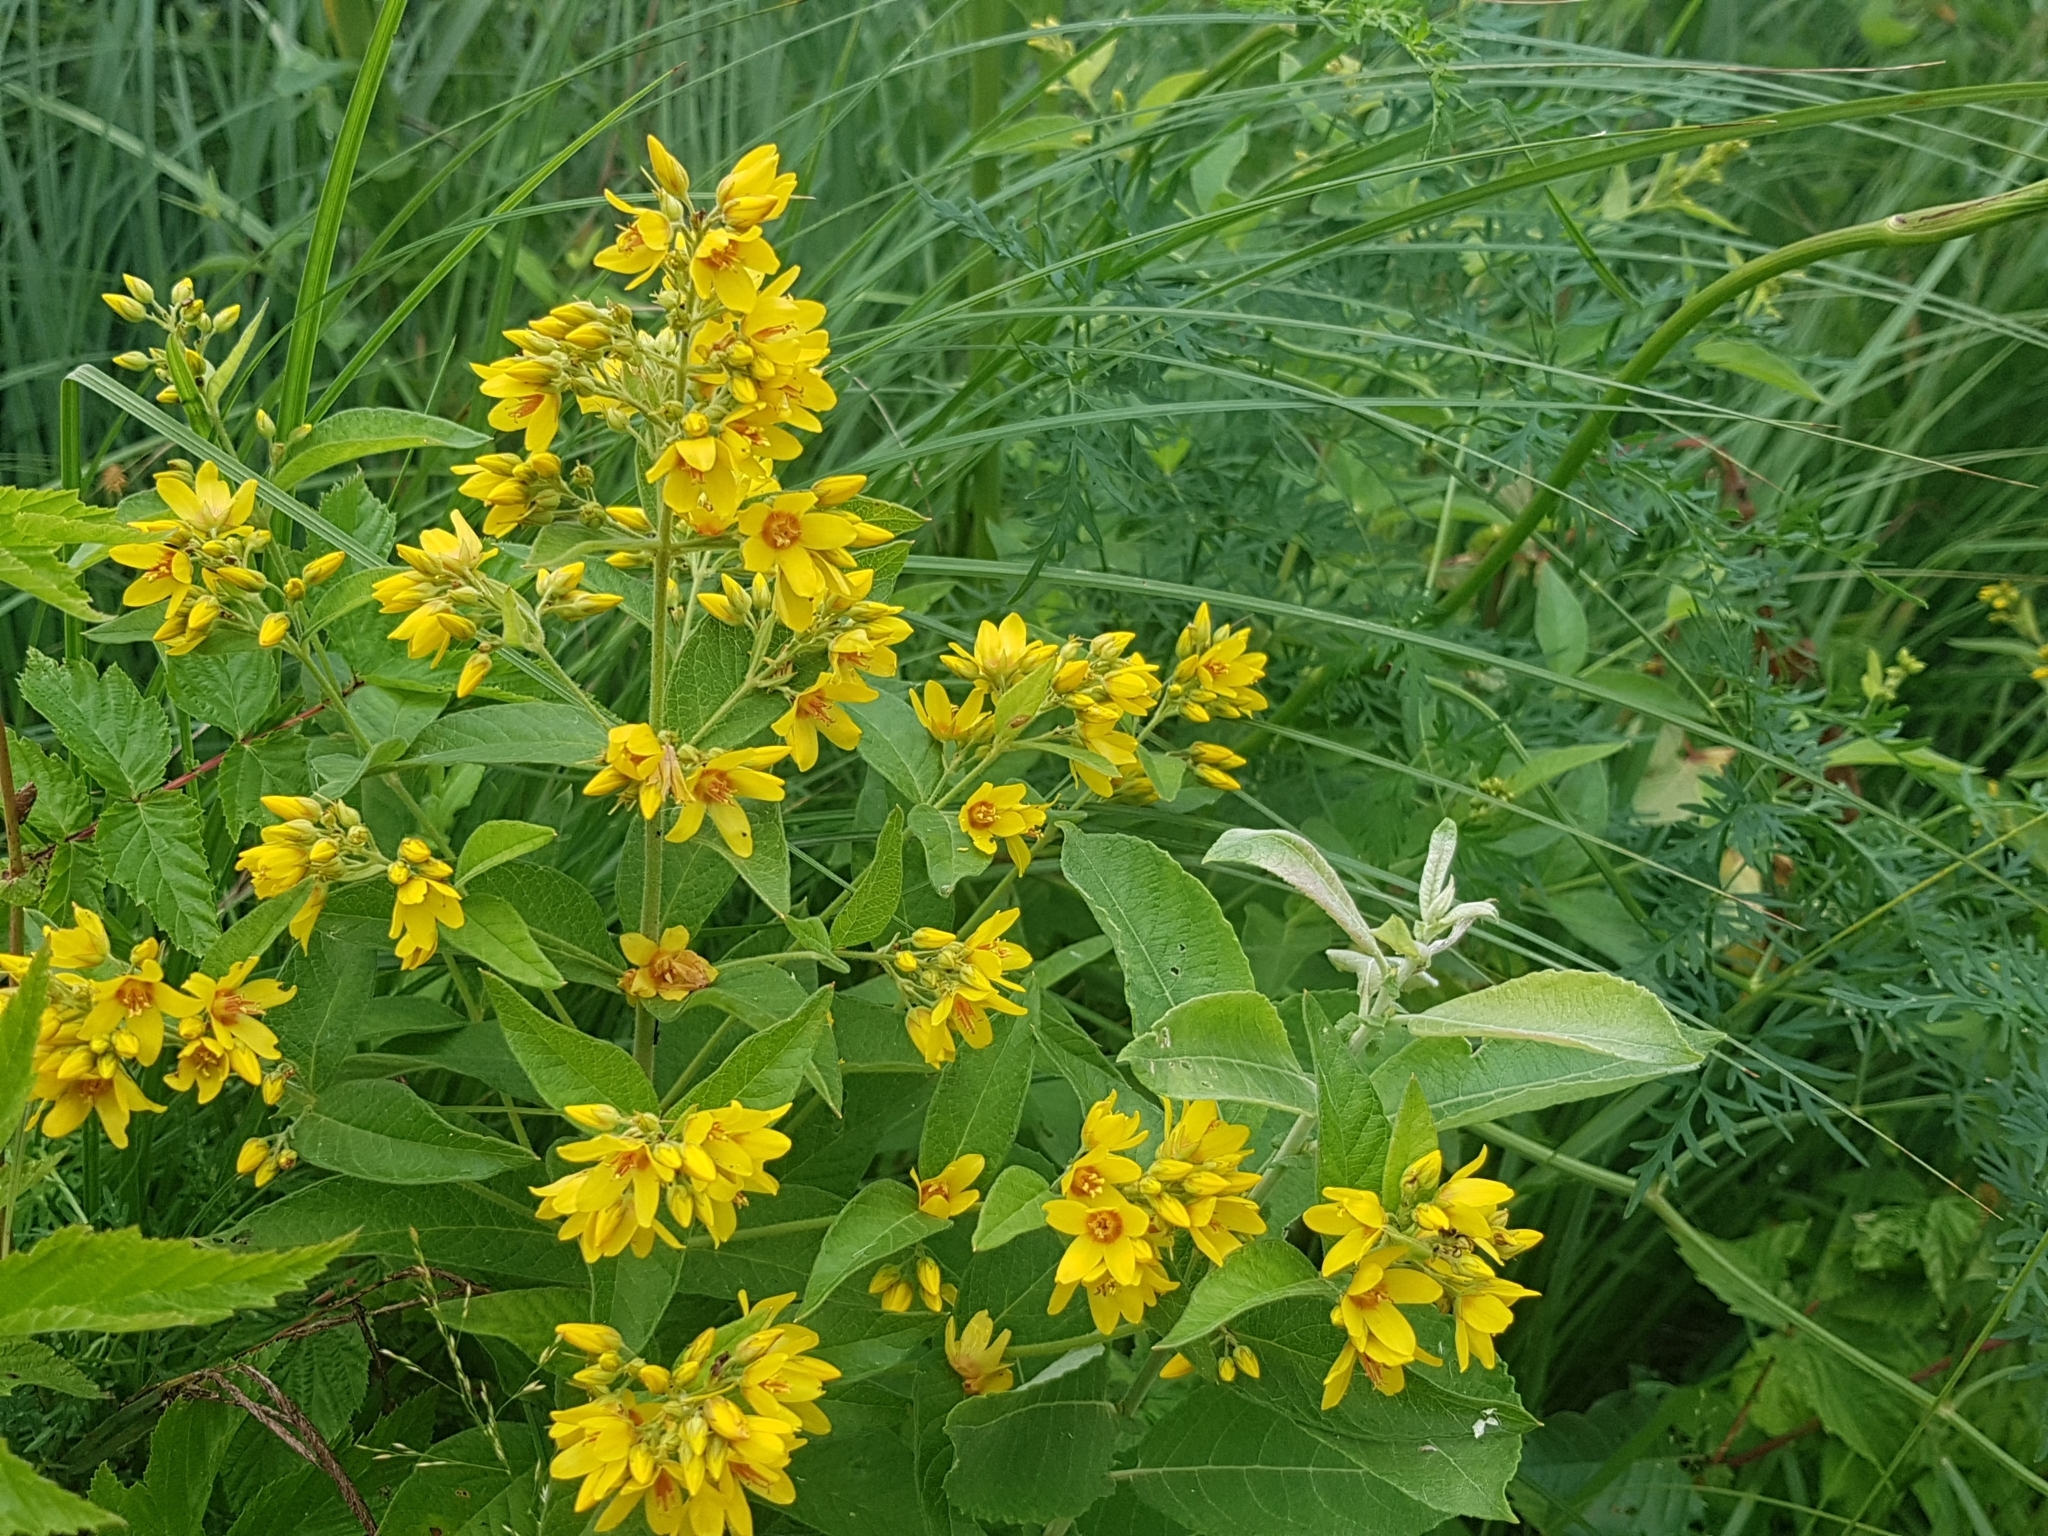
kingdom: Plantae
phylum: Tracheophyta
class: Magnoliopsida
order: Ericales
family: Primulaceae
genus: Lysimachia
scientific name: Lysimachia vulgaris
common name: Yellow loosestrife
